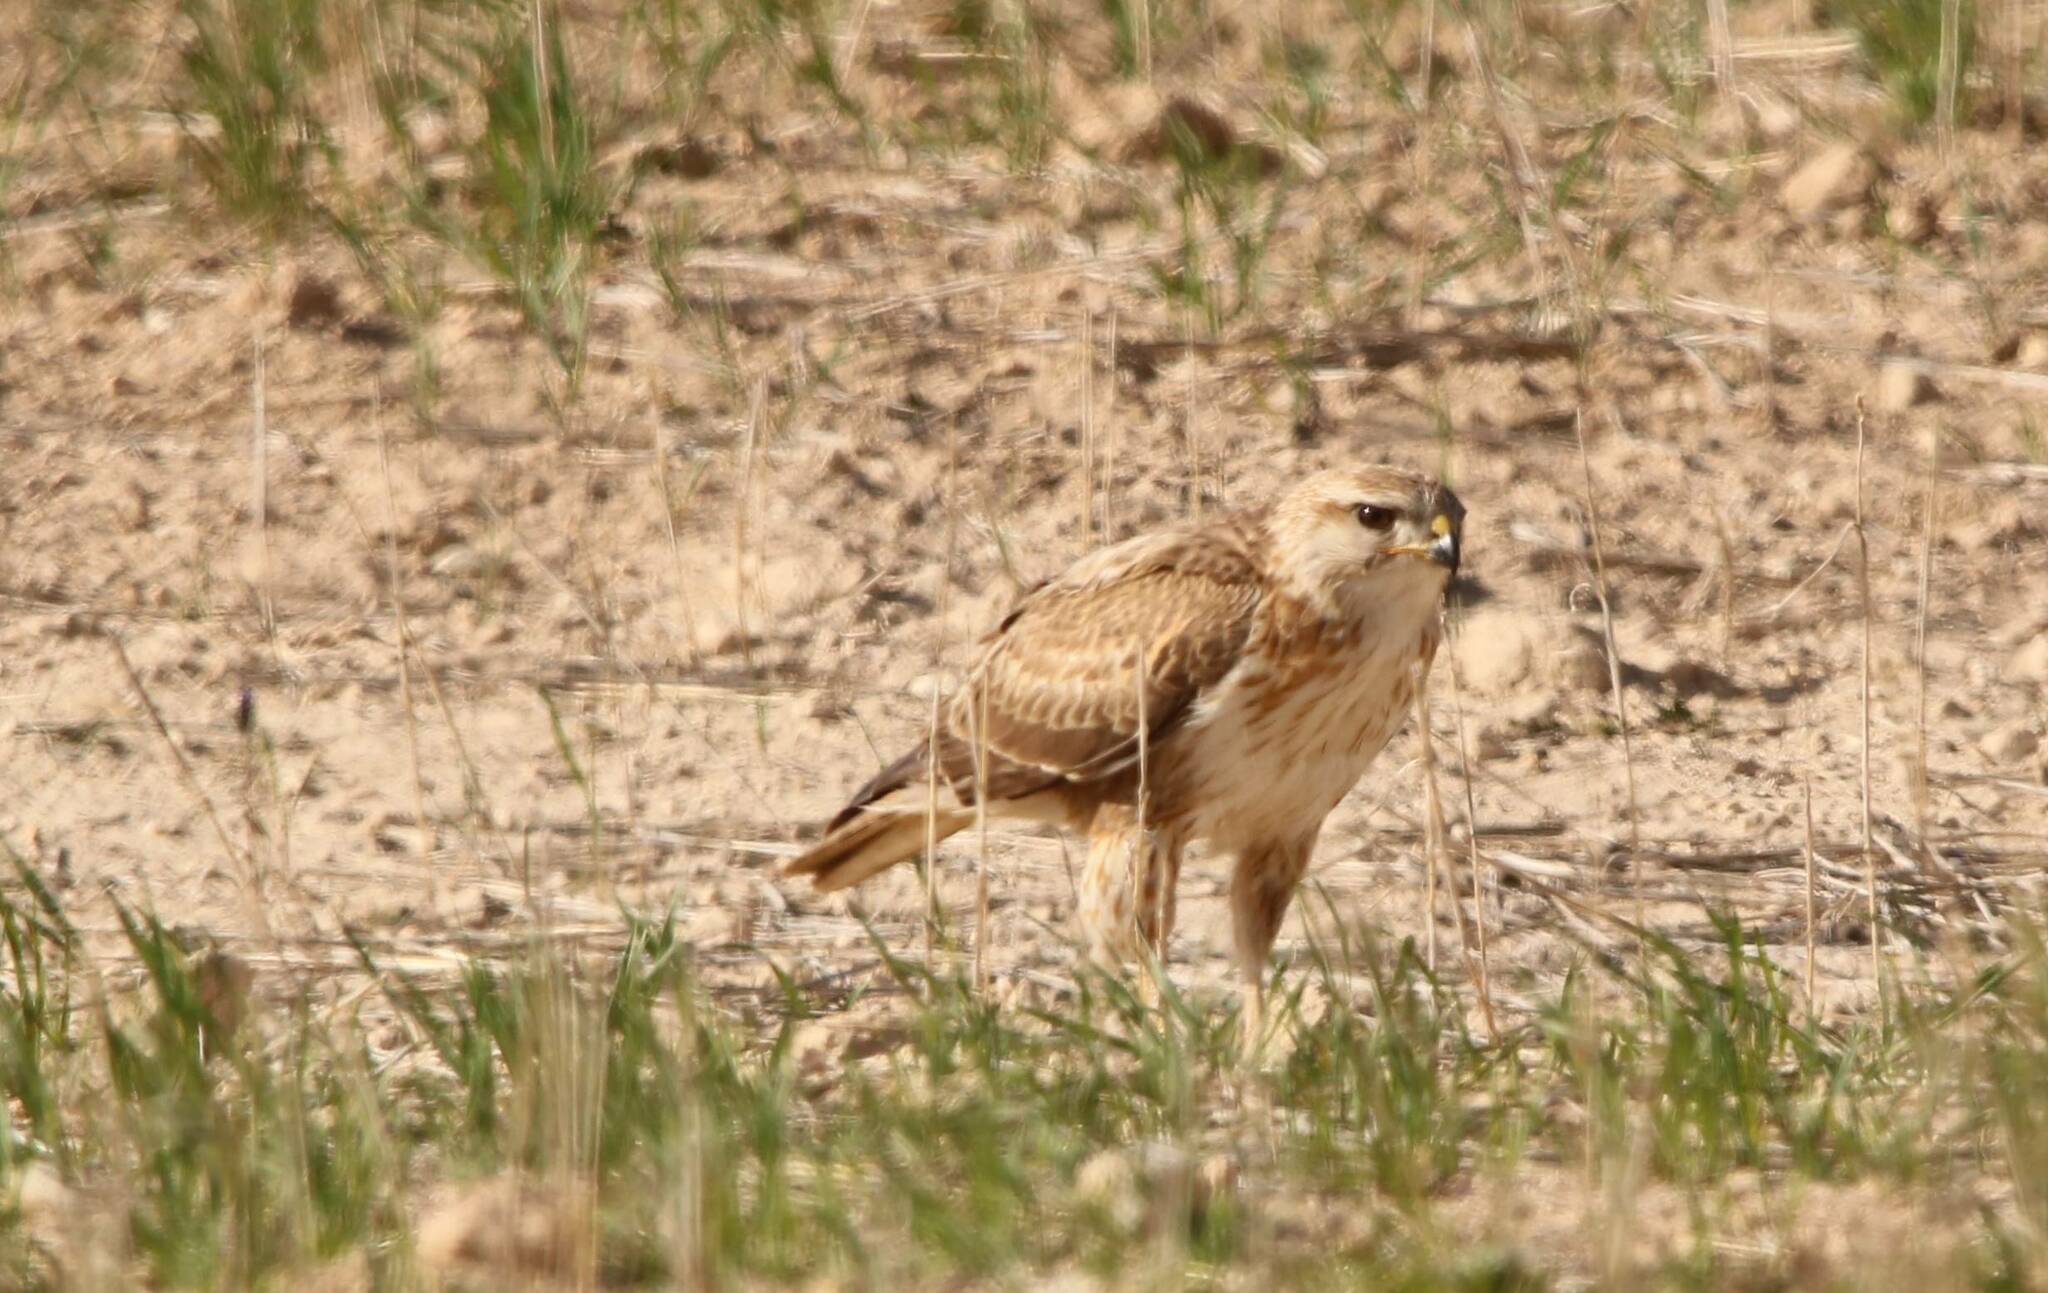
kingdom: Animalia
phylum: Chordata
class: Aves
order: Accipitriformes
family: Accipitridae
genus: Buteo
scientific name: Buteo rufinus
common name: Long-legged buzzard
